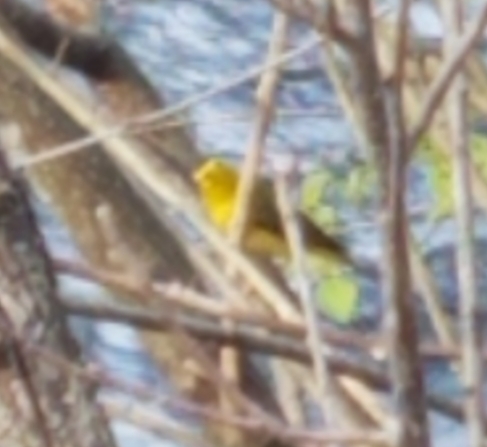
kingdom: Animalia
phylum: Chordata
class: Aves
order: Passeriformes
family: Parulidae
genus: Cardellina
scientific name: Cardellina pusilla
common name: Wilson's warbler
